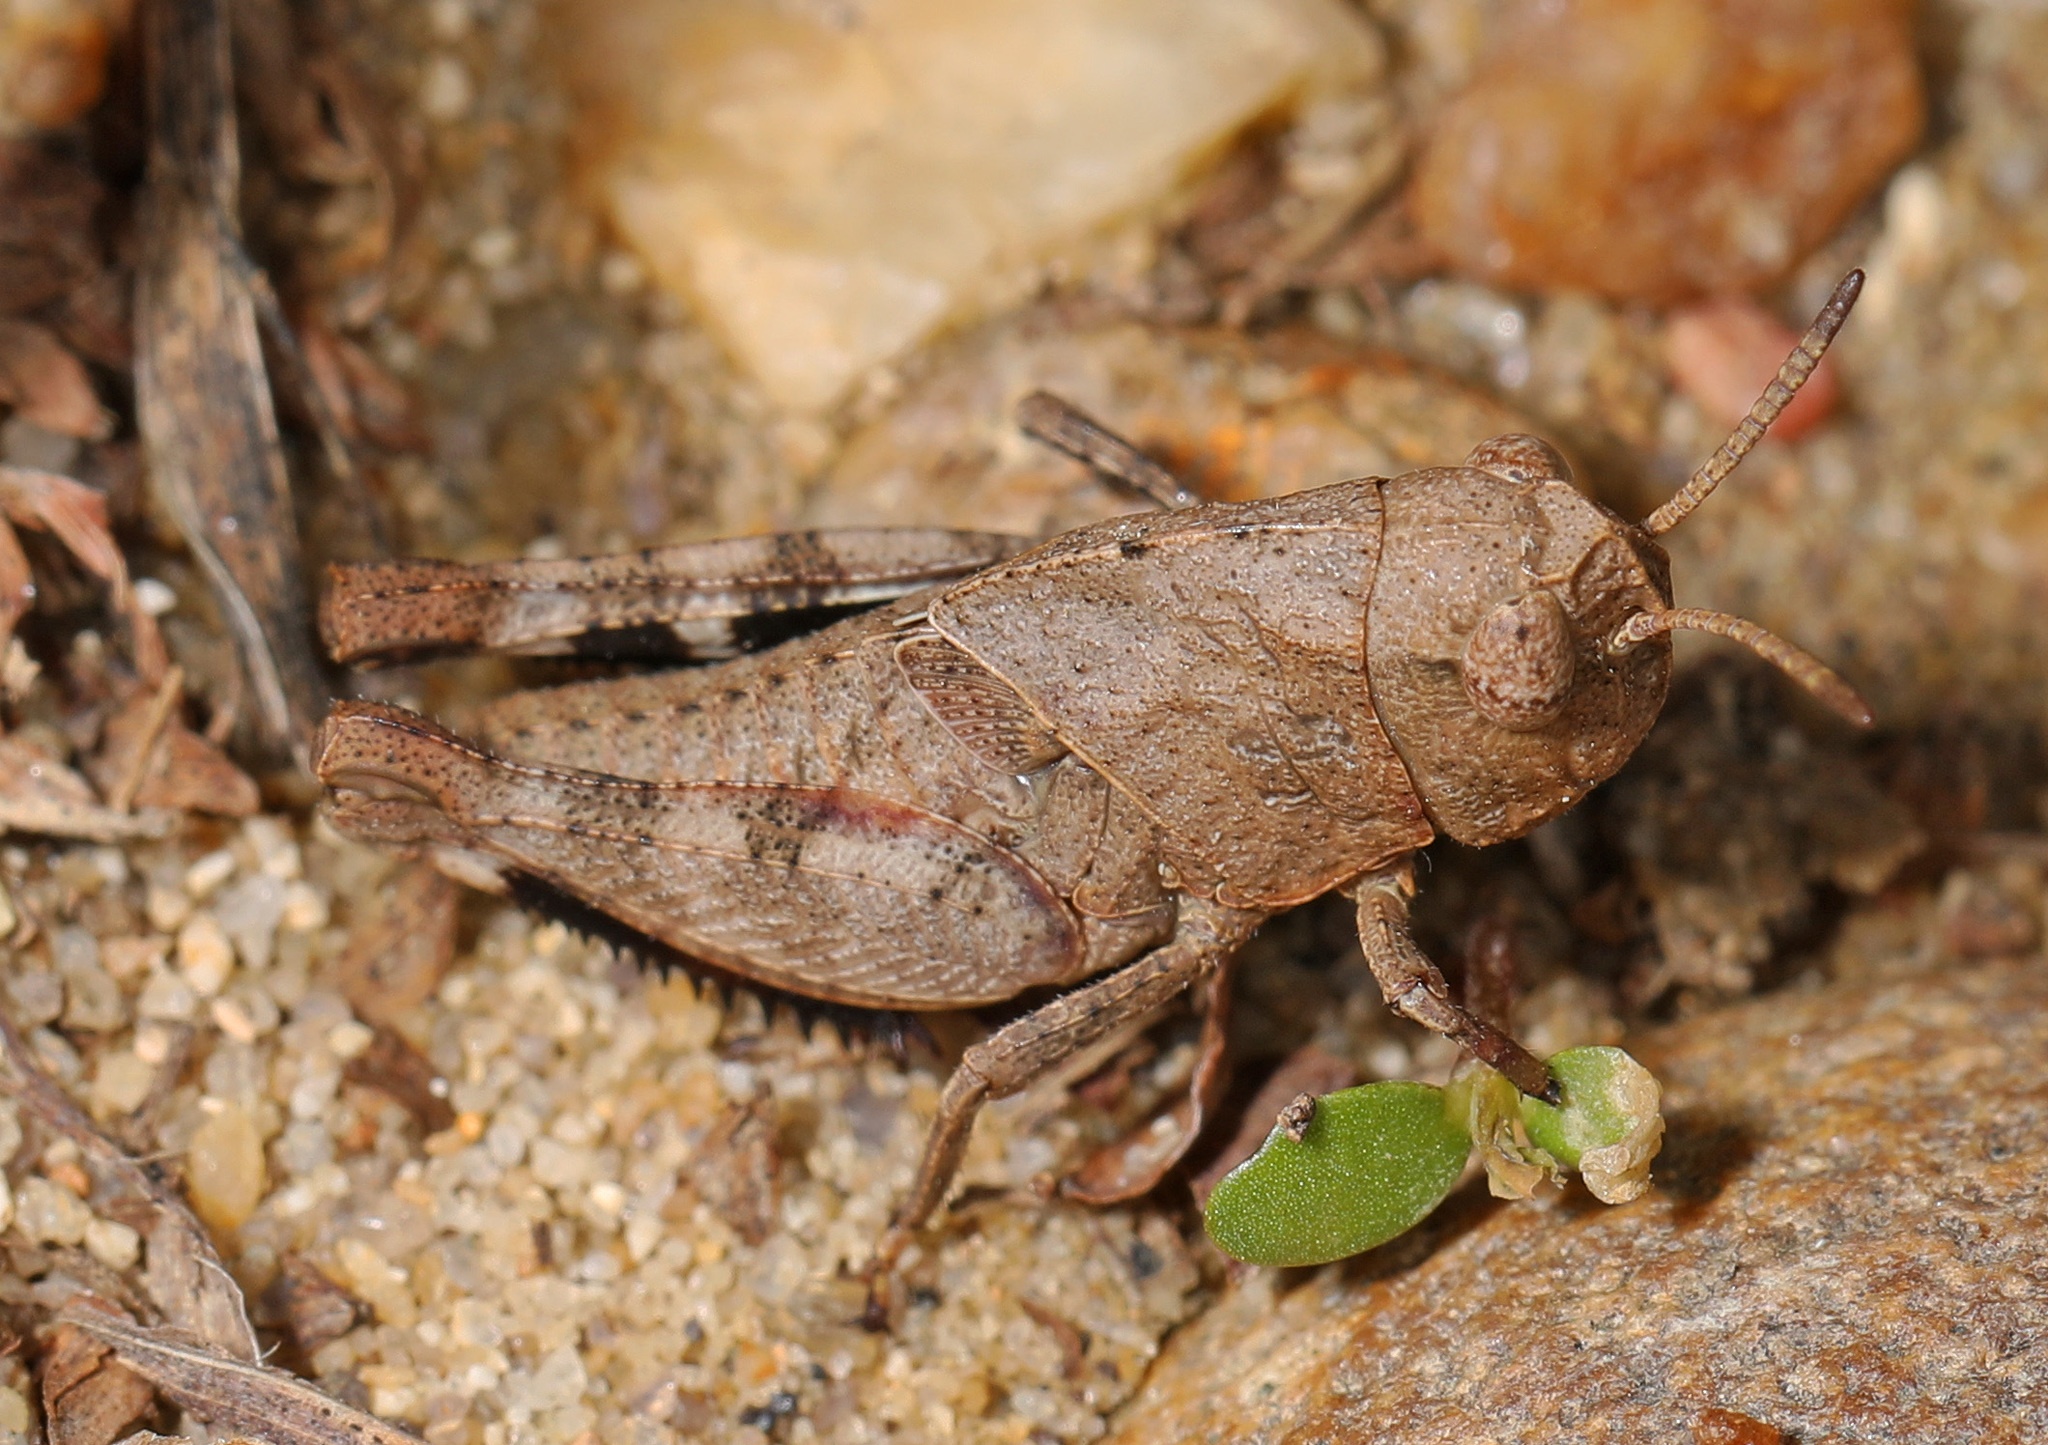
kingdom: Animalia
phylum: Arthropoda
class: Insecta
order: Orthoptera
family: Acrididae
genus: Arphia
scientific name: Arphia sulphurea
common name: Spring yellow-winged locust
